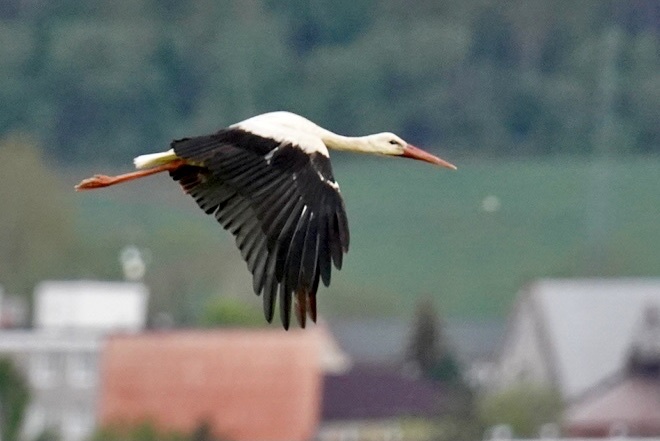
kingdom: Animalia
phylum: Chordata
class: Aves
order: Ciconiiformes
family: Ciconiidae
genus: Ciconia
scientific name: Ciconia ciconia
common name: White stork
